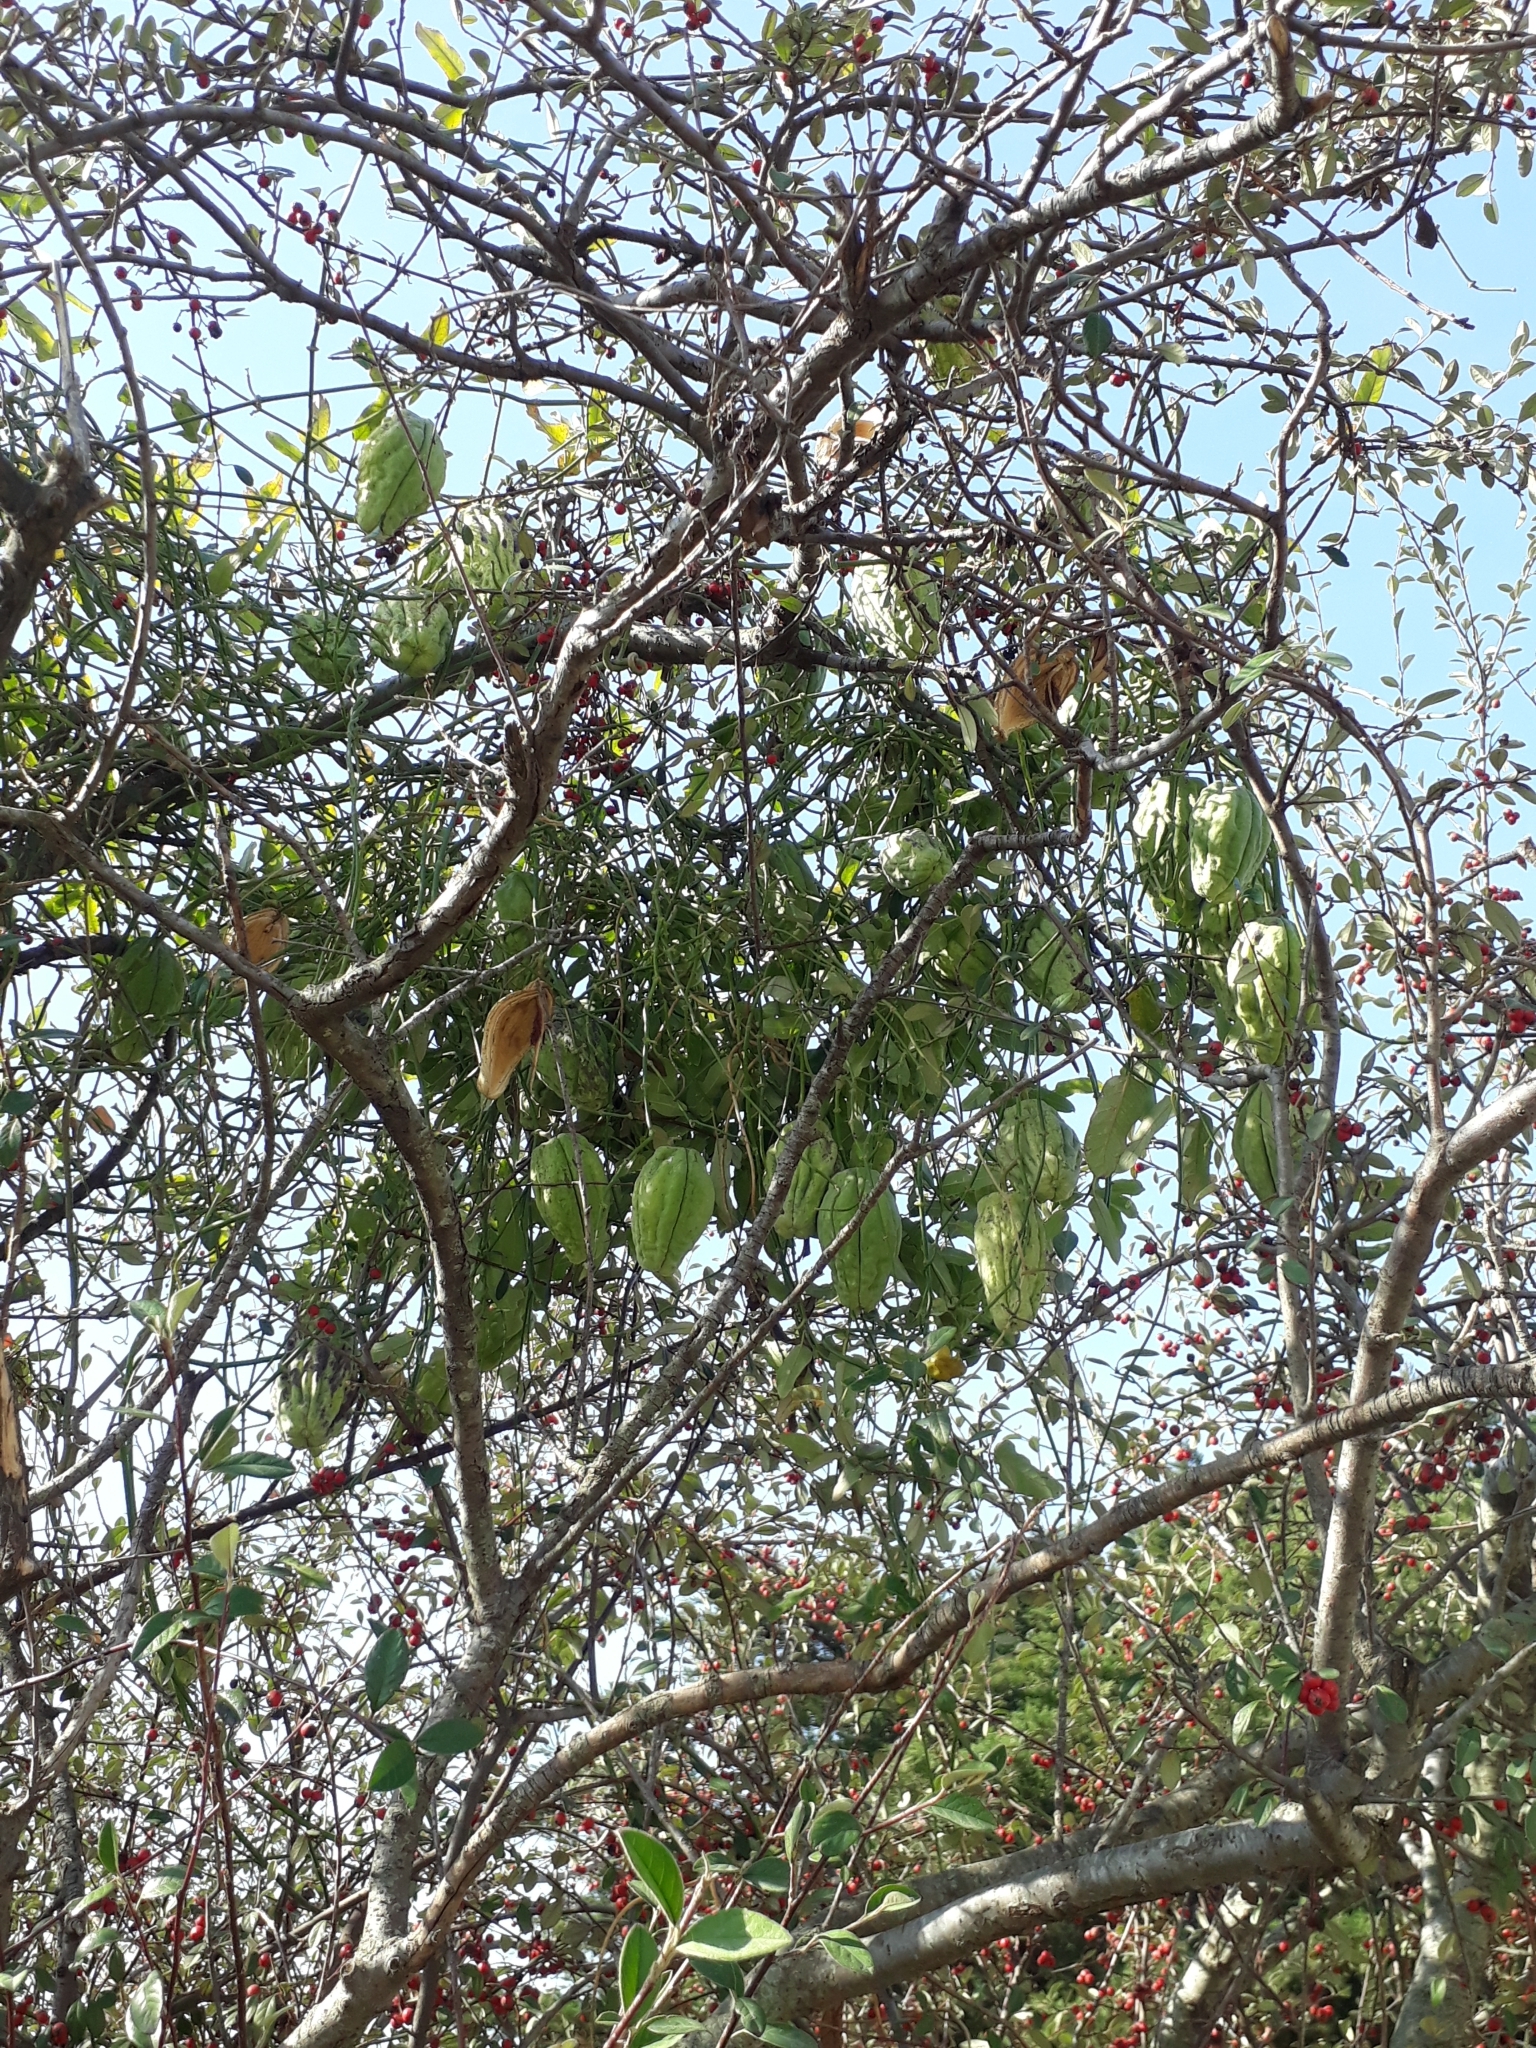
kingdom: Plantae
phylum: Tracheophyta
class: Magnoliopsida
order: Gentianales
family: Apocynaceae
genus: Araujia
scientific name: Araujia sericifera
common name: White bladderflower
